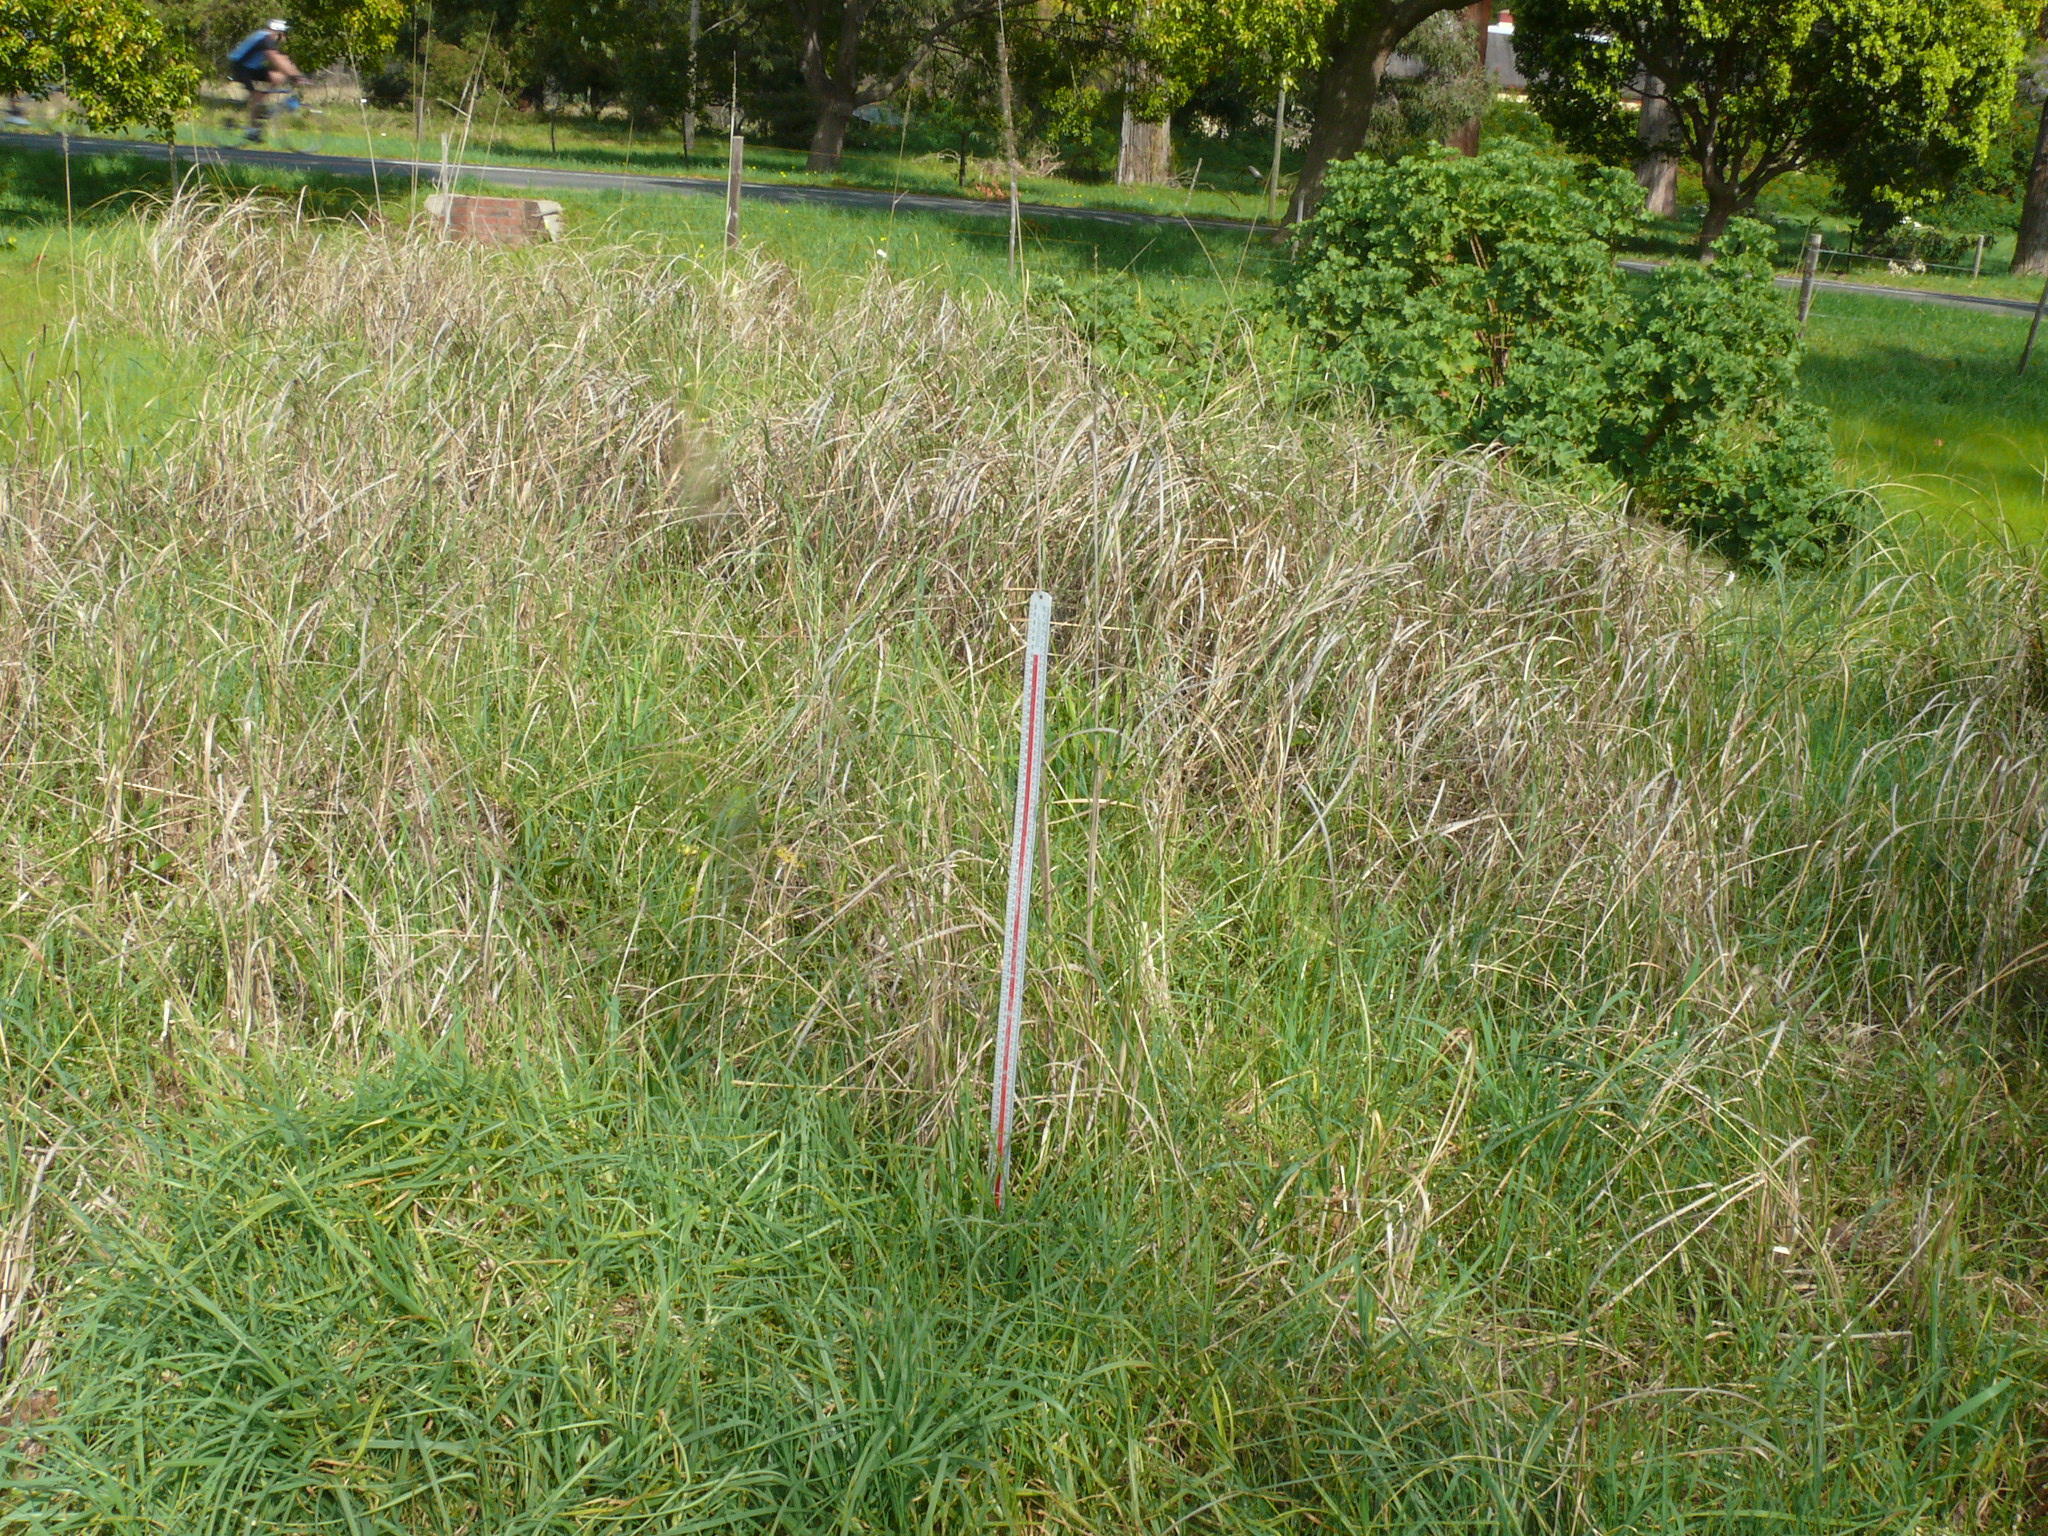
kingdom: Plantae
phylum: Tracheophyta
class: Liliopsida
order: Poales
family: Poaceae
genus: Cenchrus
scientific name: Cenchrus clandestinus
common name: Kikuyugrass
